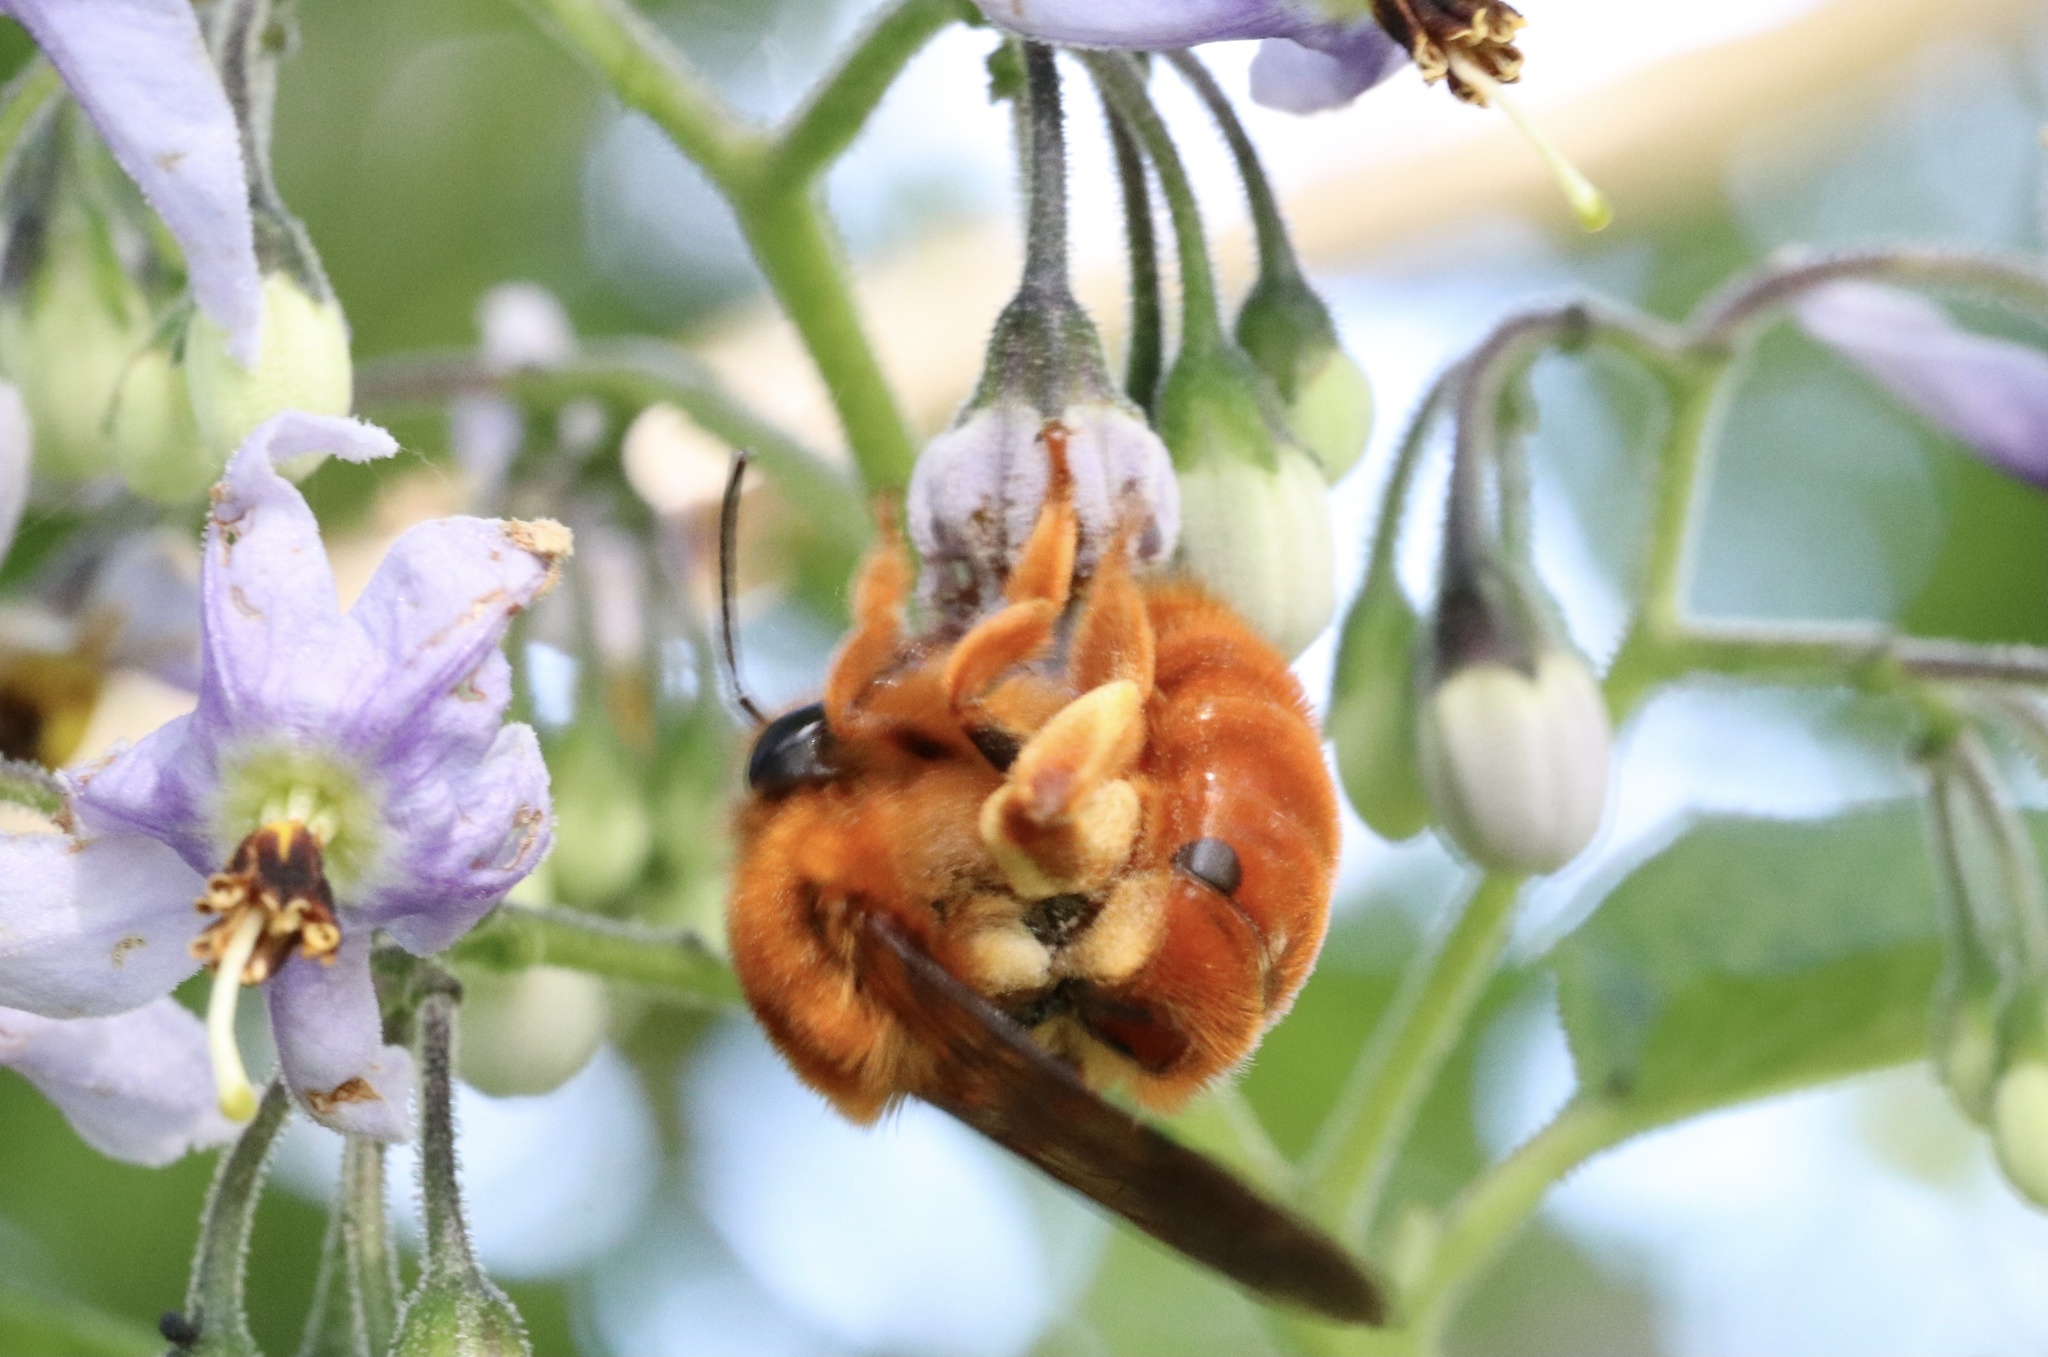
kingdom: Animalia
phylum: Arthropoda
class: Insecta
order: Hymenoptera
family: Colletidae
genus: Diphaglossa
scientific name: Diphaglossa gayi
